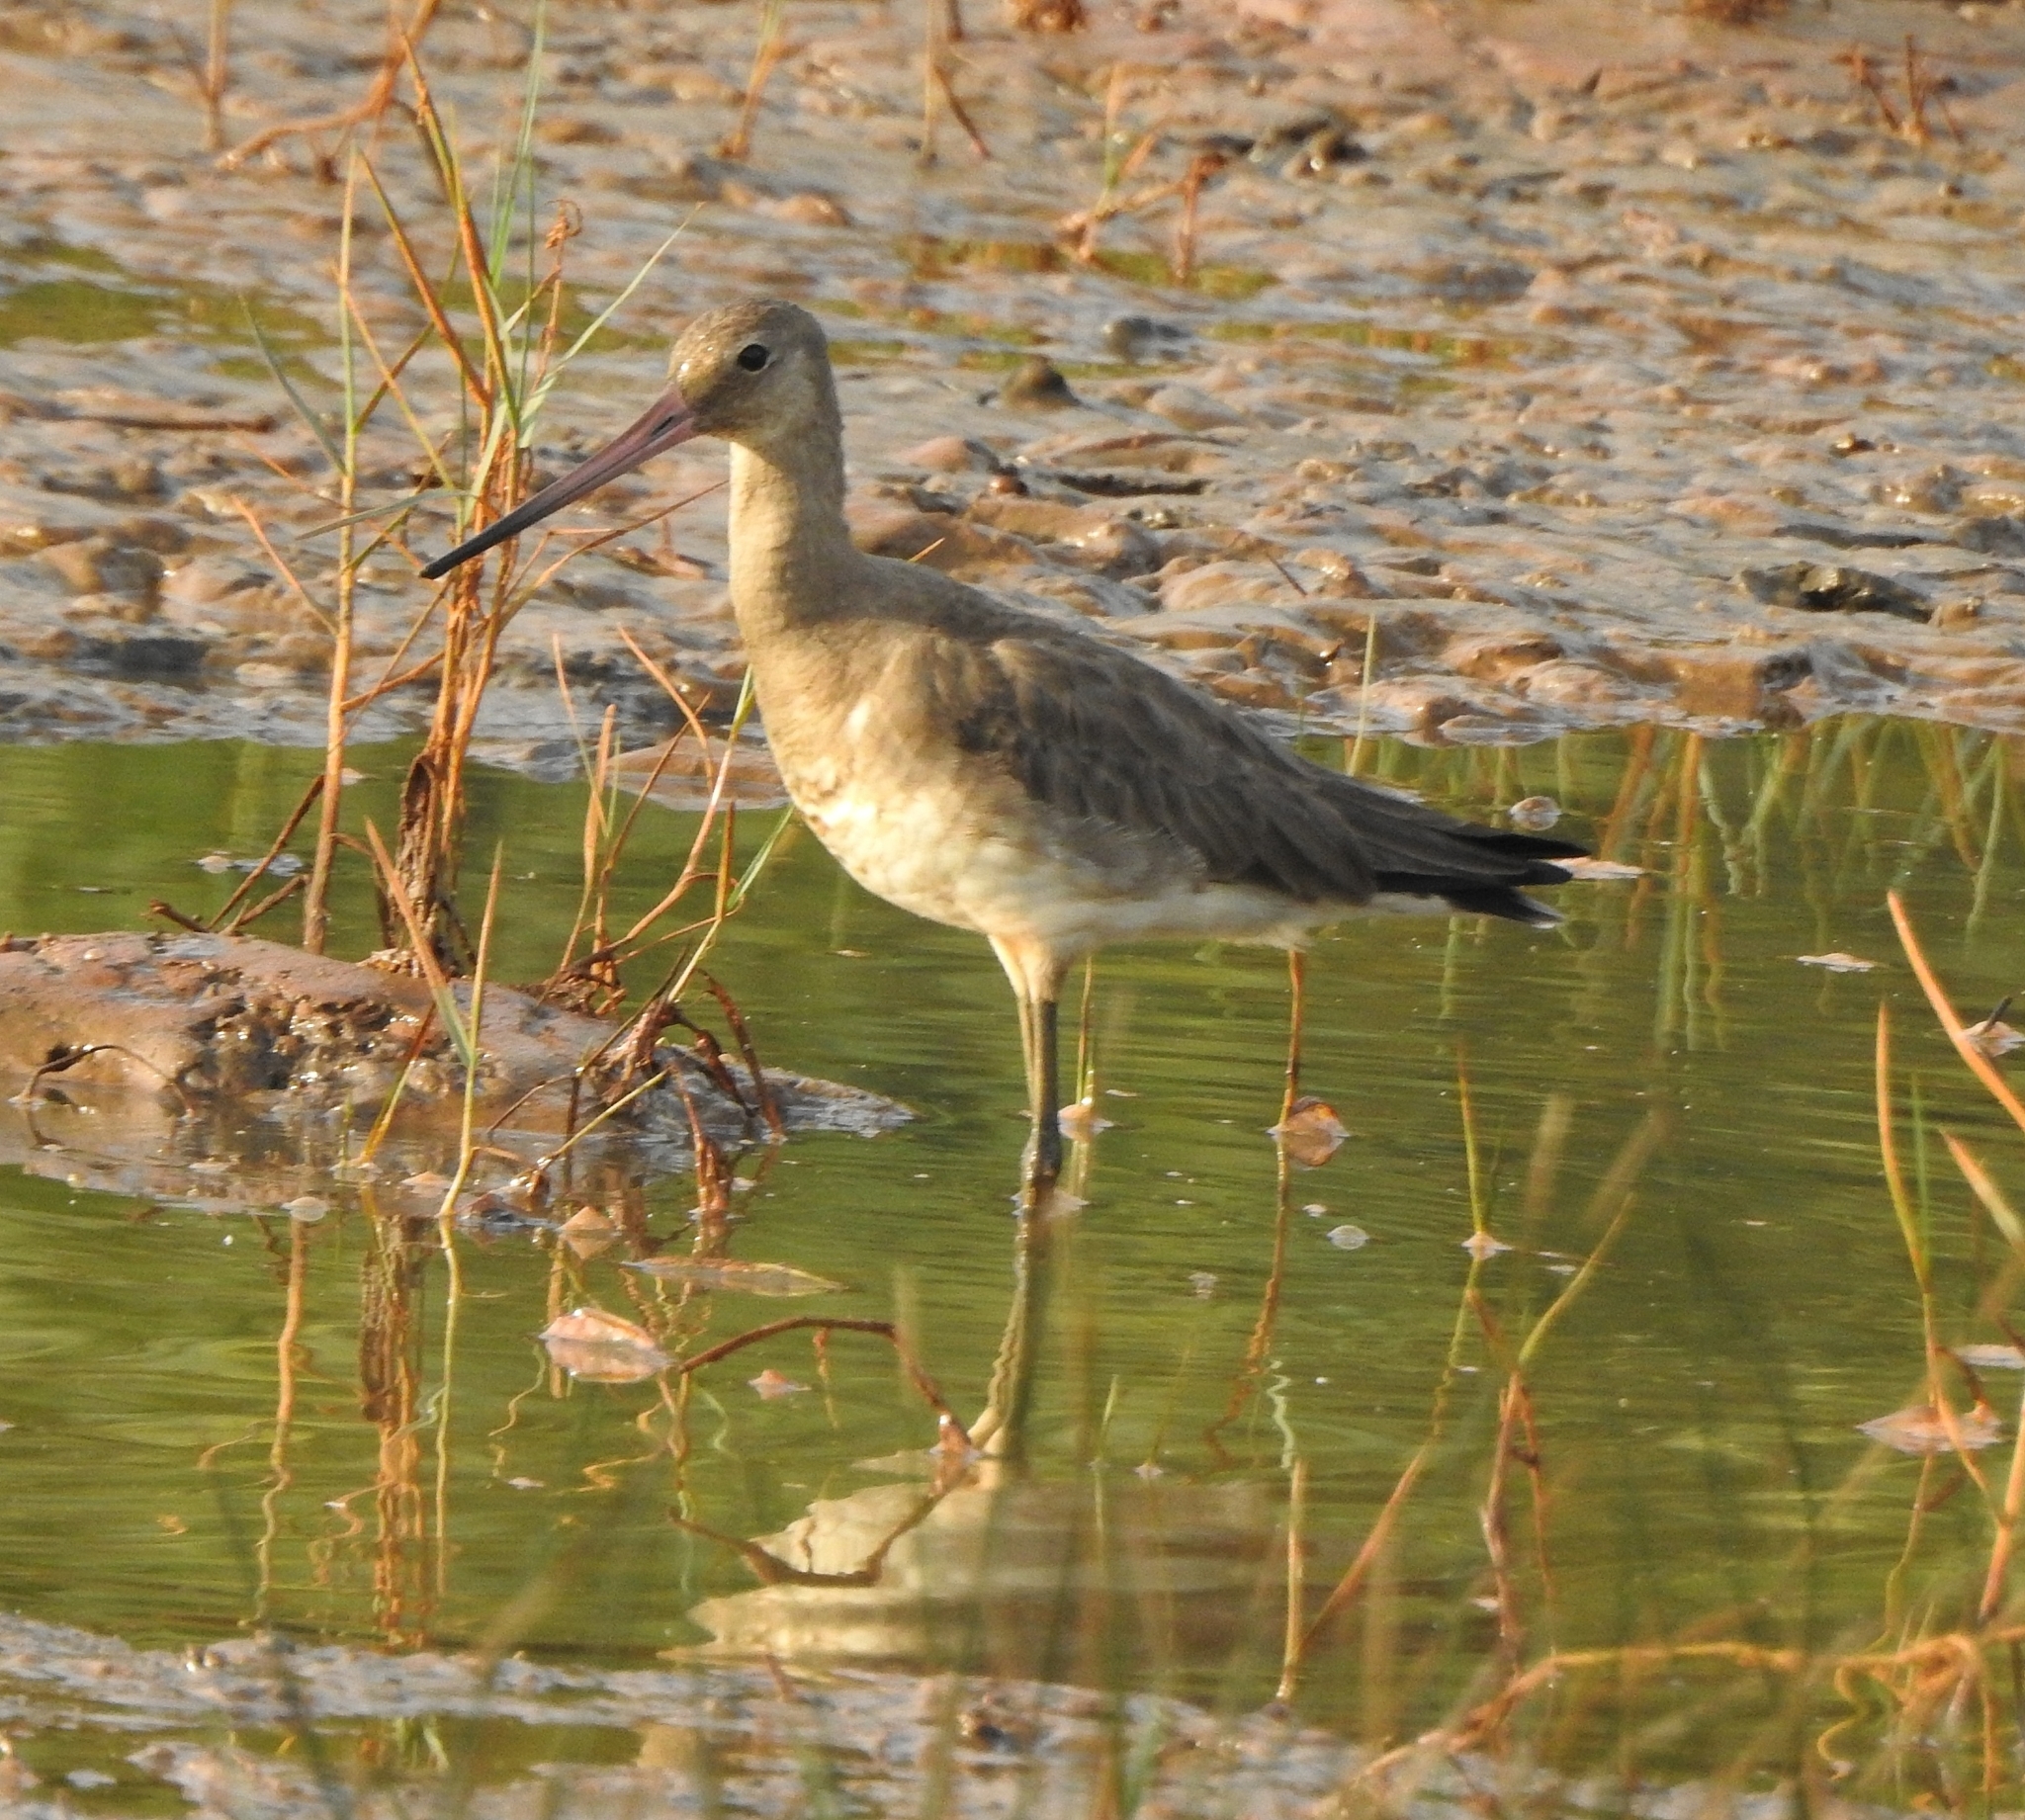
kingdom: Animalia
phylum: Chordata
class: Aves
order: Charadriiformes
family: Scolopacidae
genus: Limosa
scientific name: Limosa limosa
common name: Black-tailed godwit
